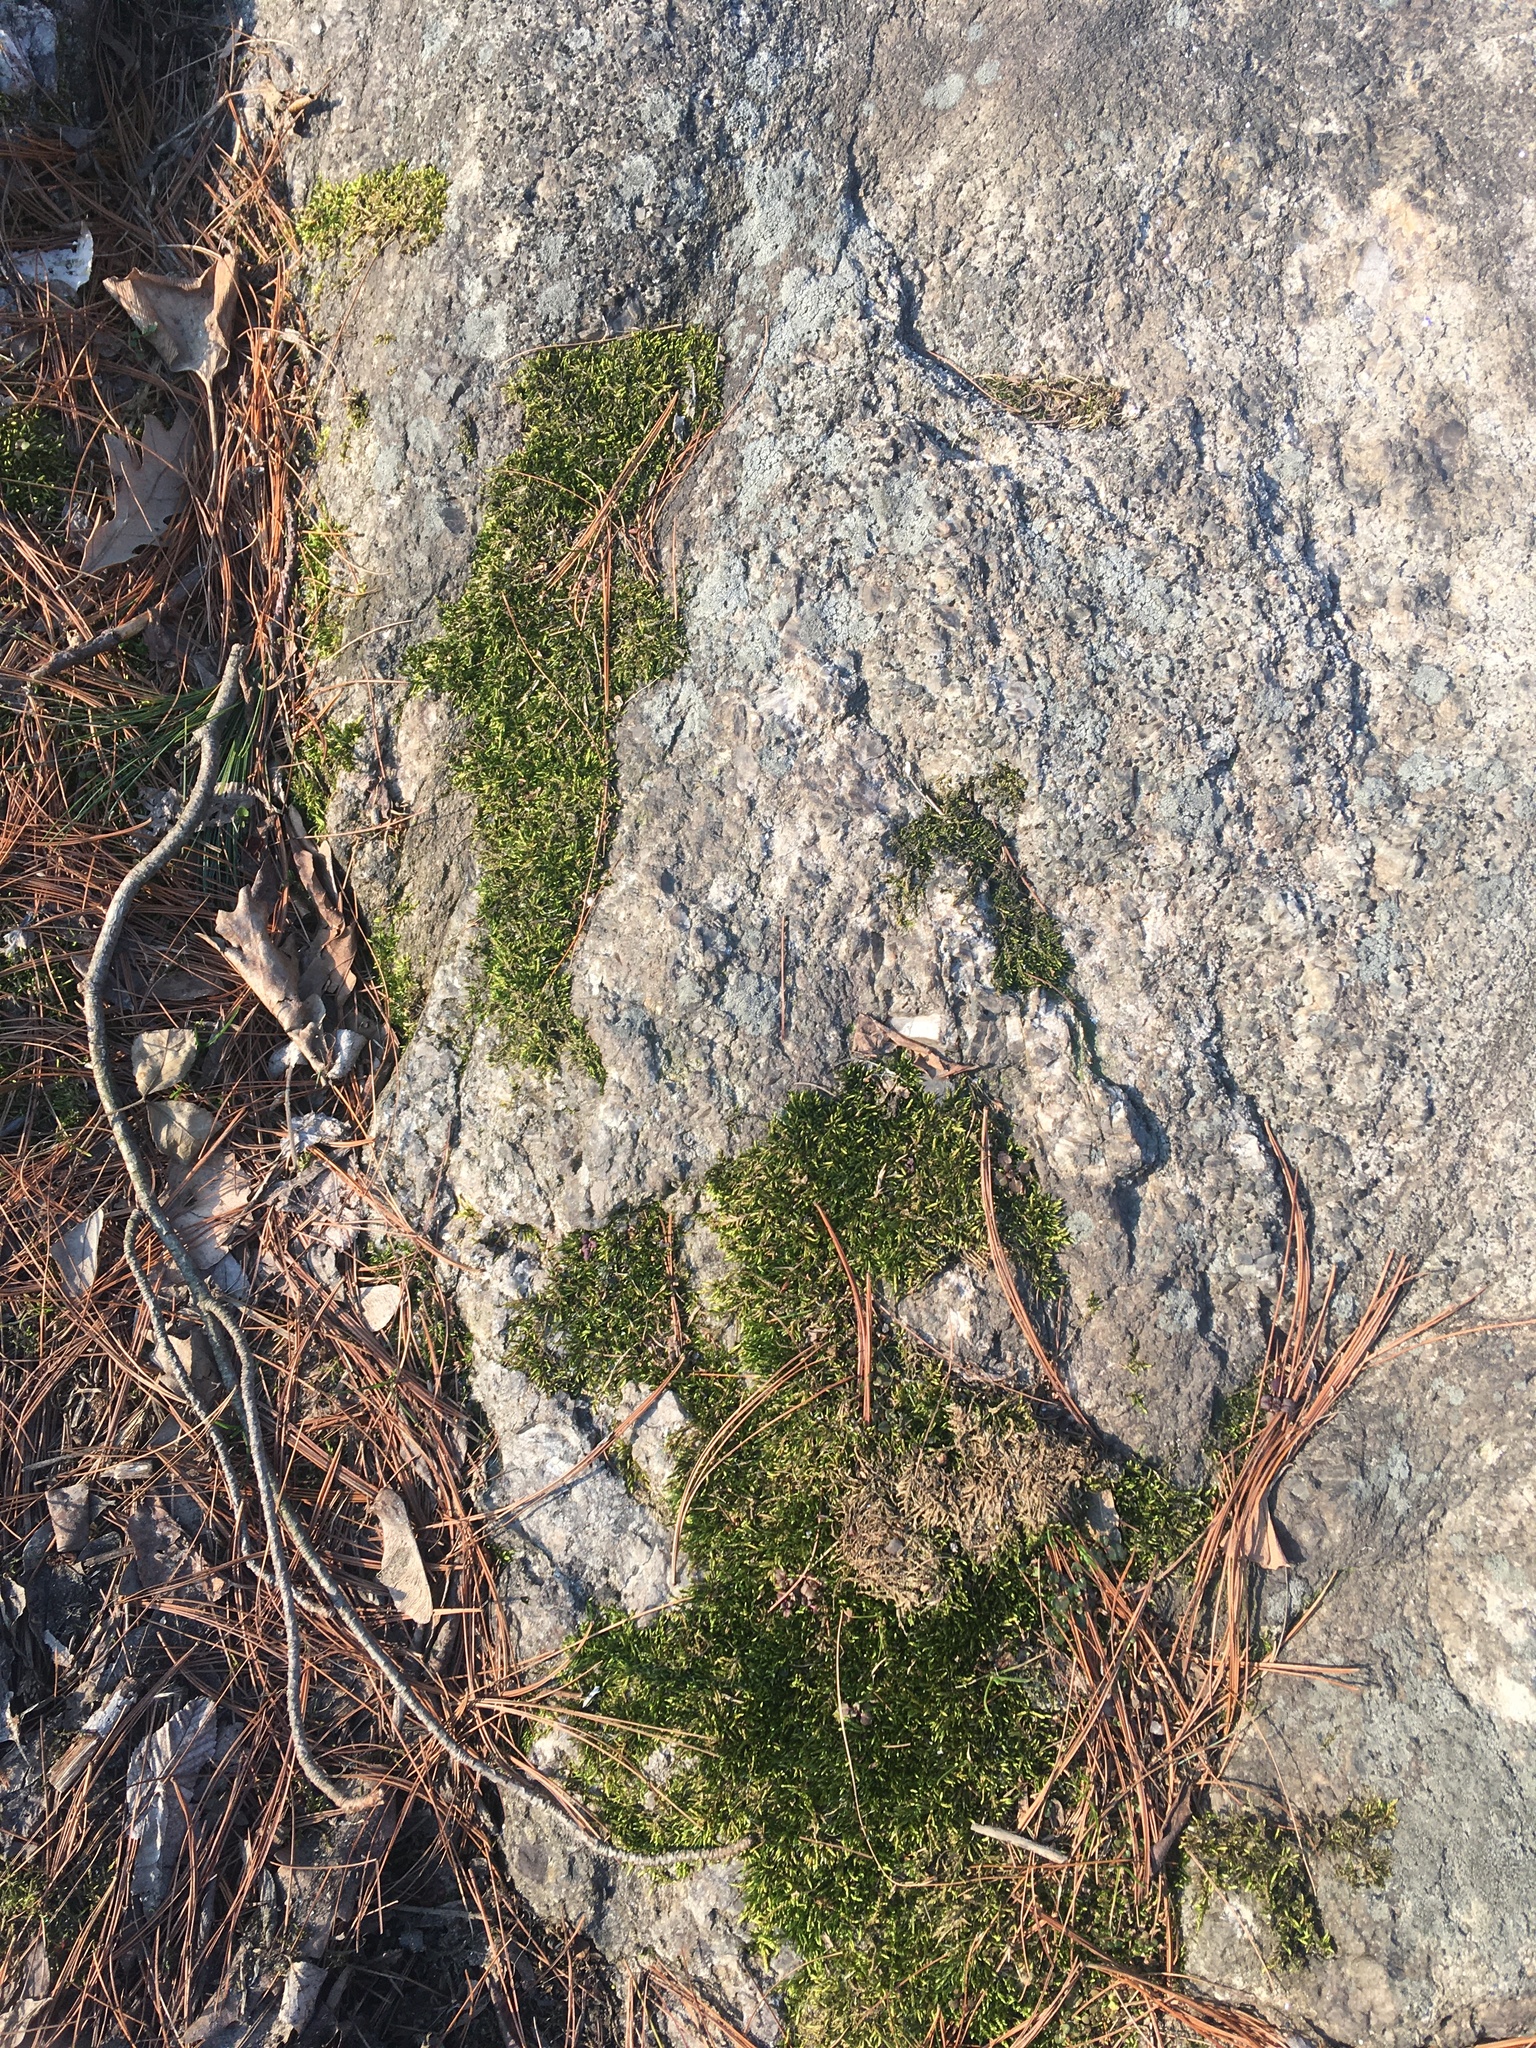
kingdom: Plantae
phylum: Bryophyta
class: Bryopsida
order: Hypnales
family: Entodontaceae
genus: Entodon
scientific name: Entodon seductrix
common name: Round-stemmed entodon moss
